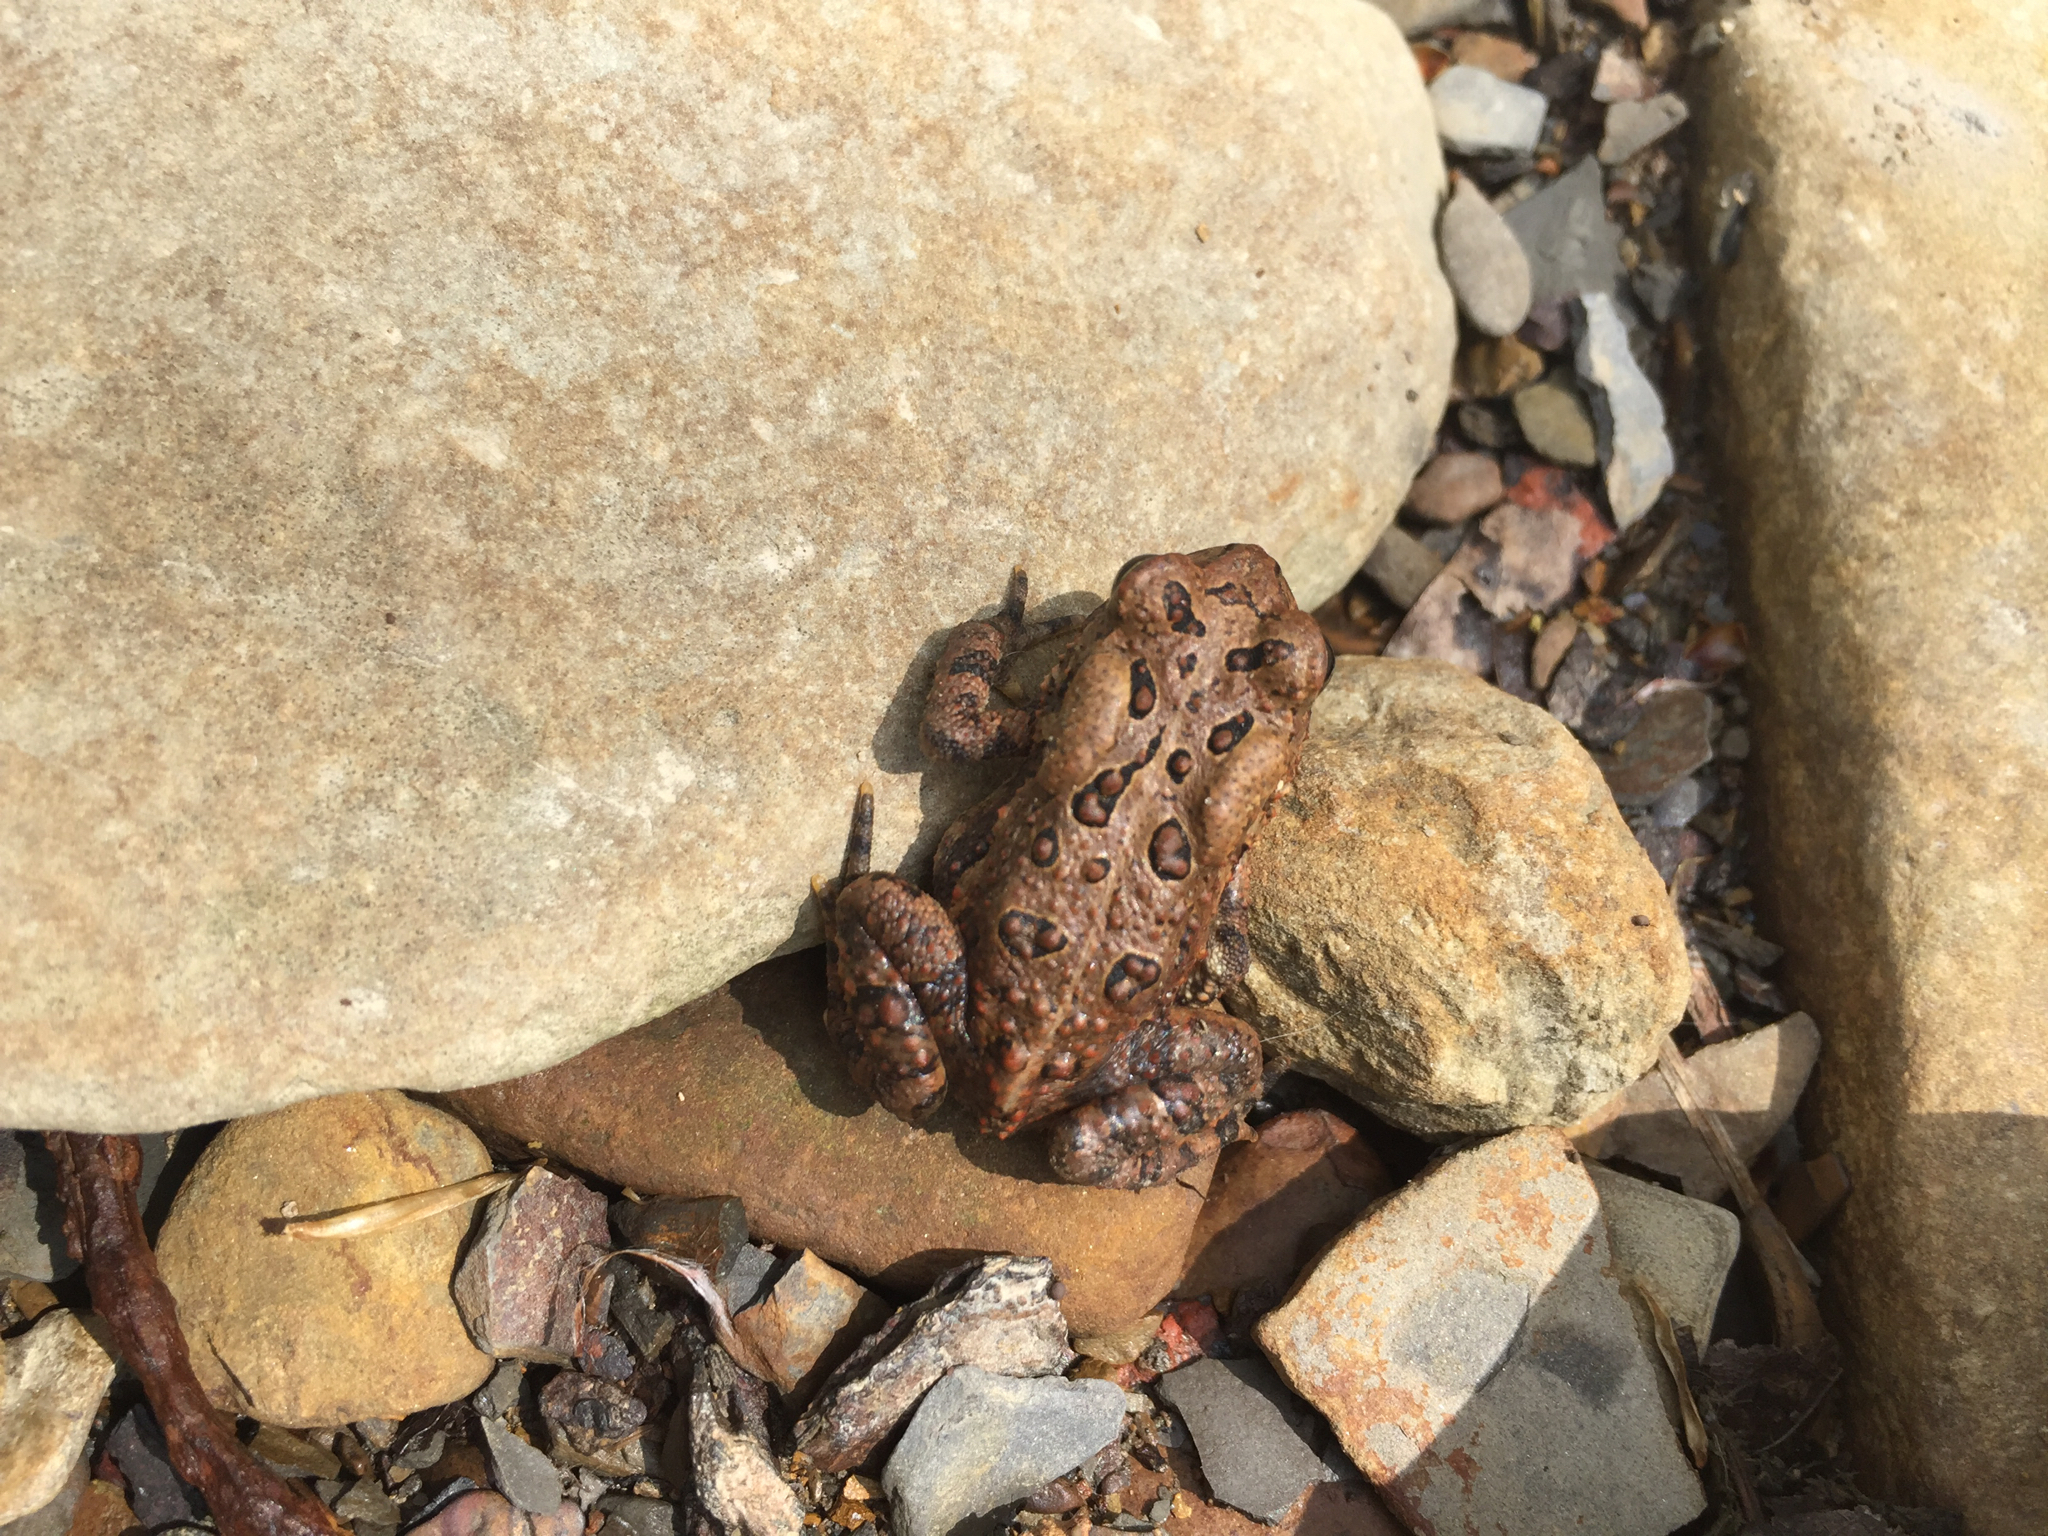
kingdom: Animalia
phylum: Chordata
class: Amphibia
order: Anura
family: Bufonidae
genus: Anaxyrus
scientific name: Anaxyrus americanus
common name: American toad
